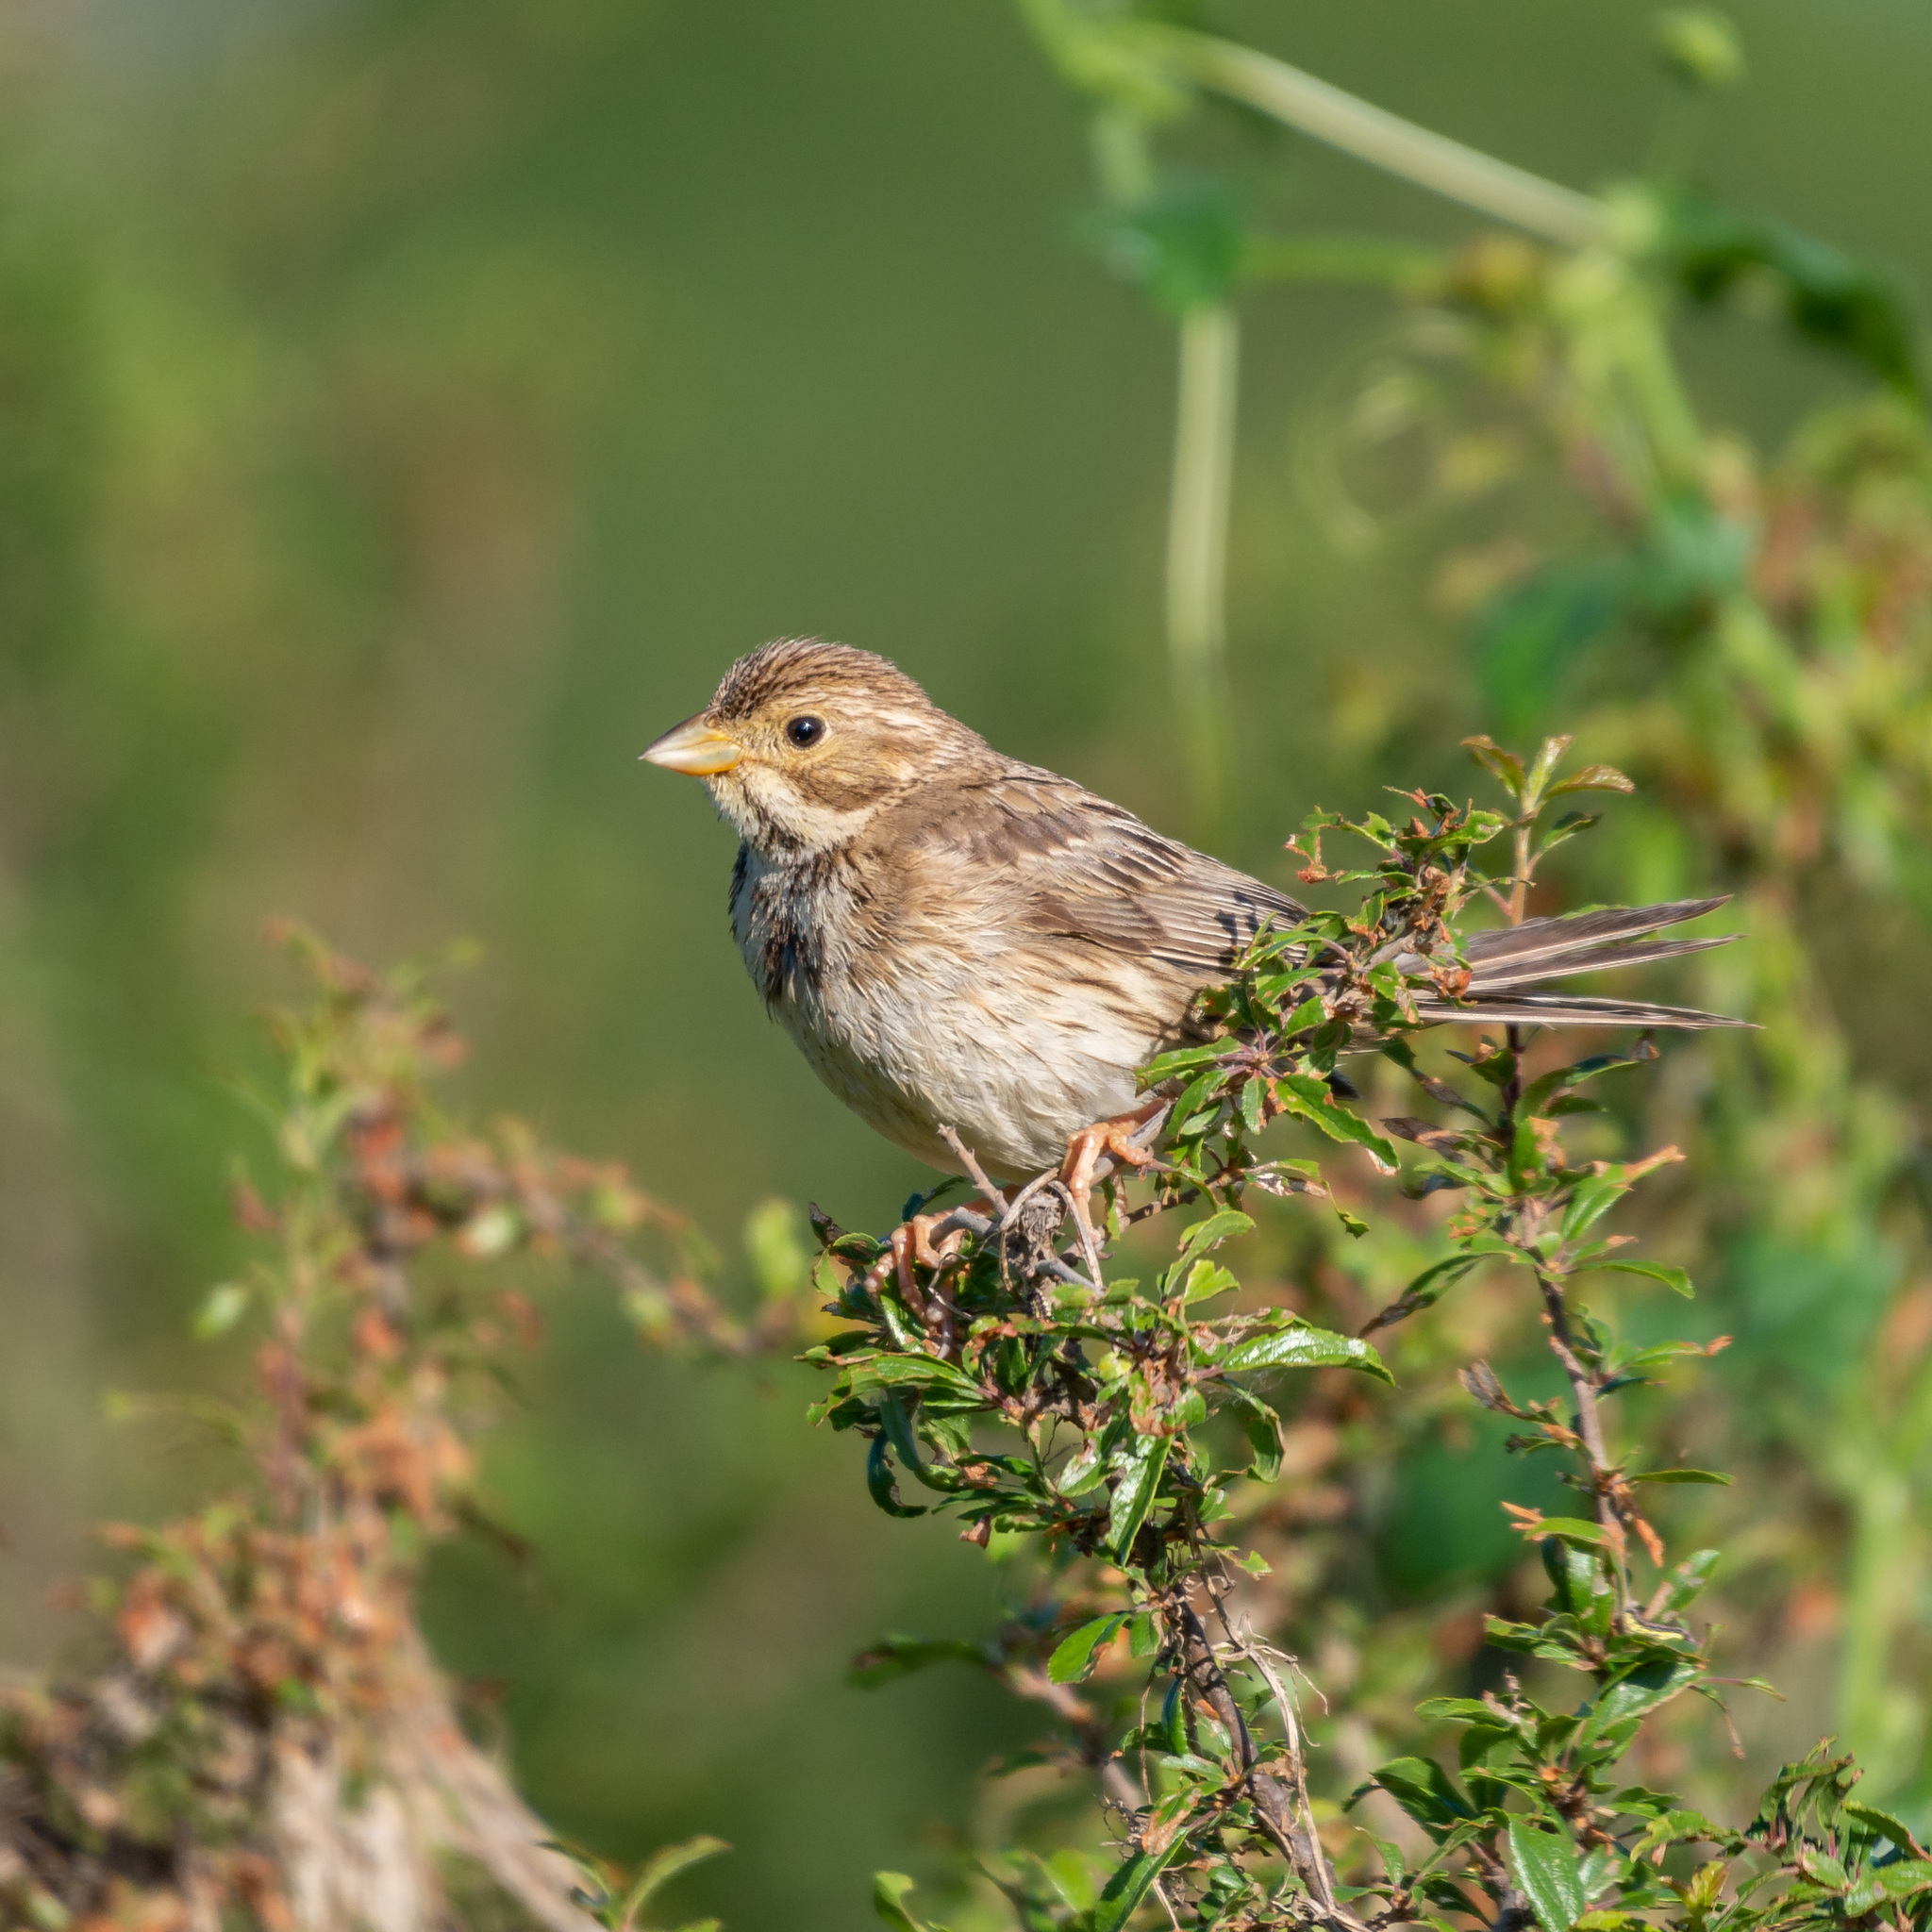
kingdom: Animalia
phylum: Chordata
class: Aves
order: Passeriformes
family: Emberizidae
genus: Emberiza
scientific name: Emberiza calandra
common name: Corn bunting
